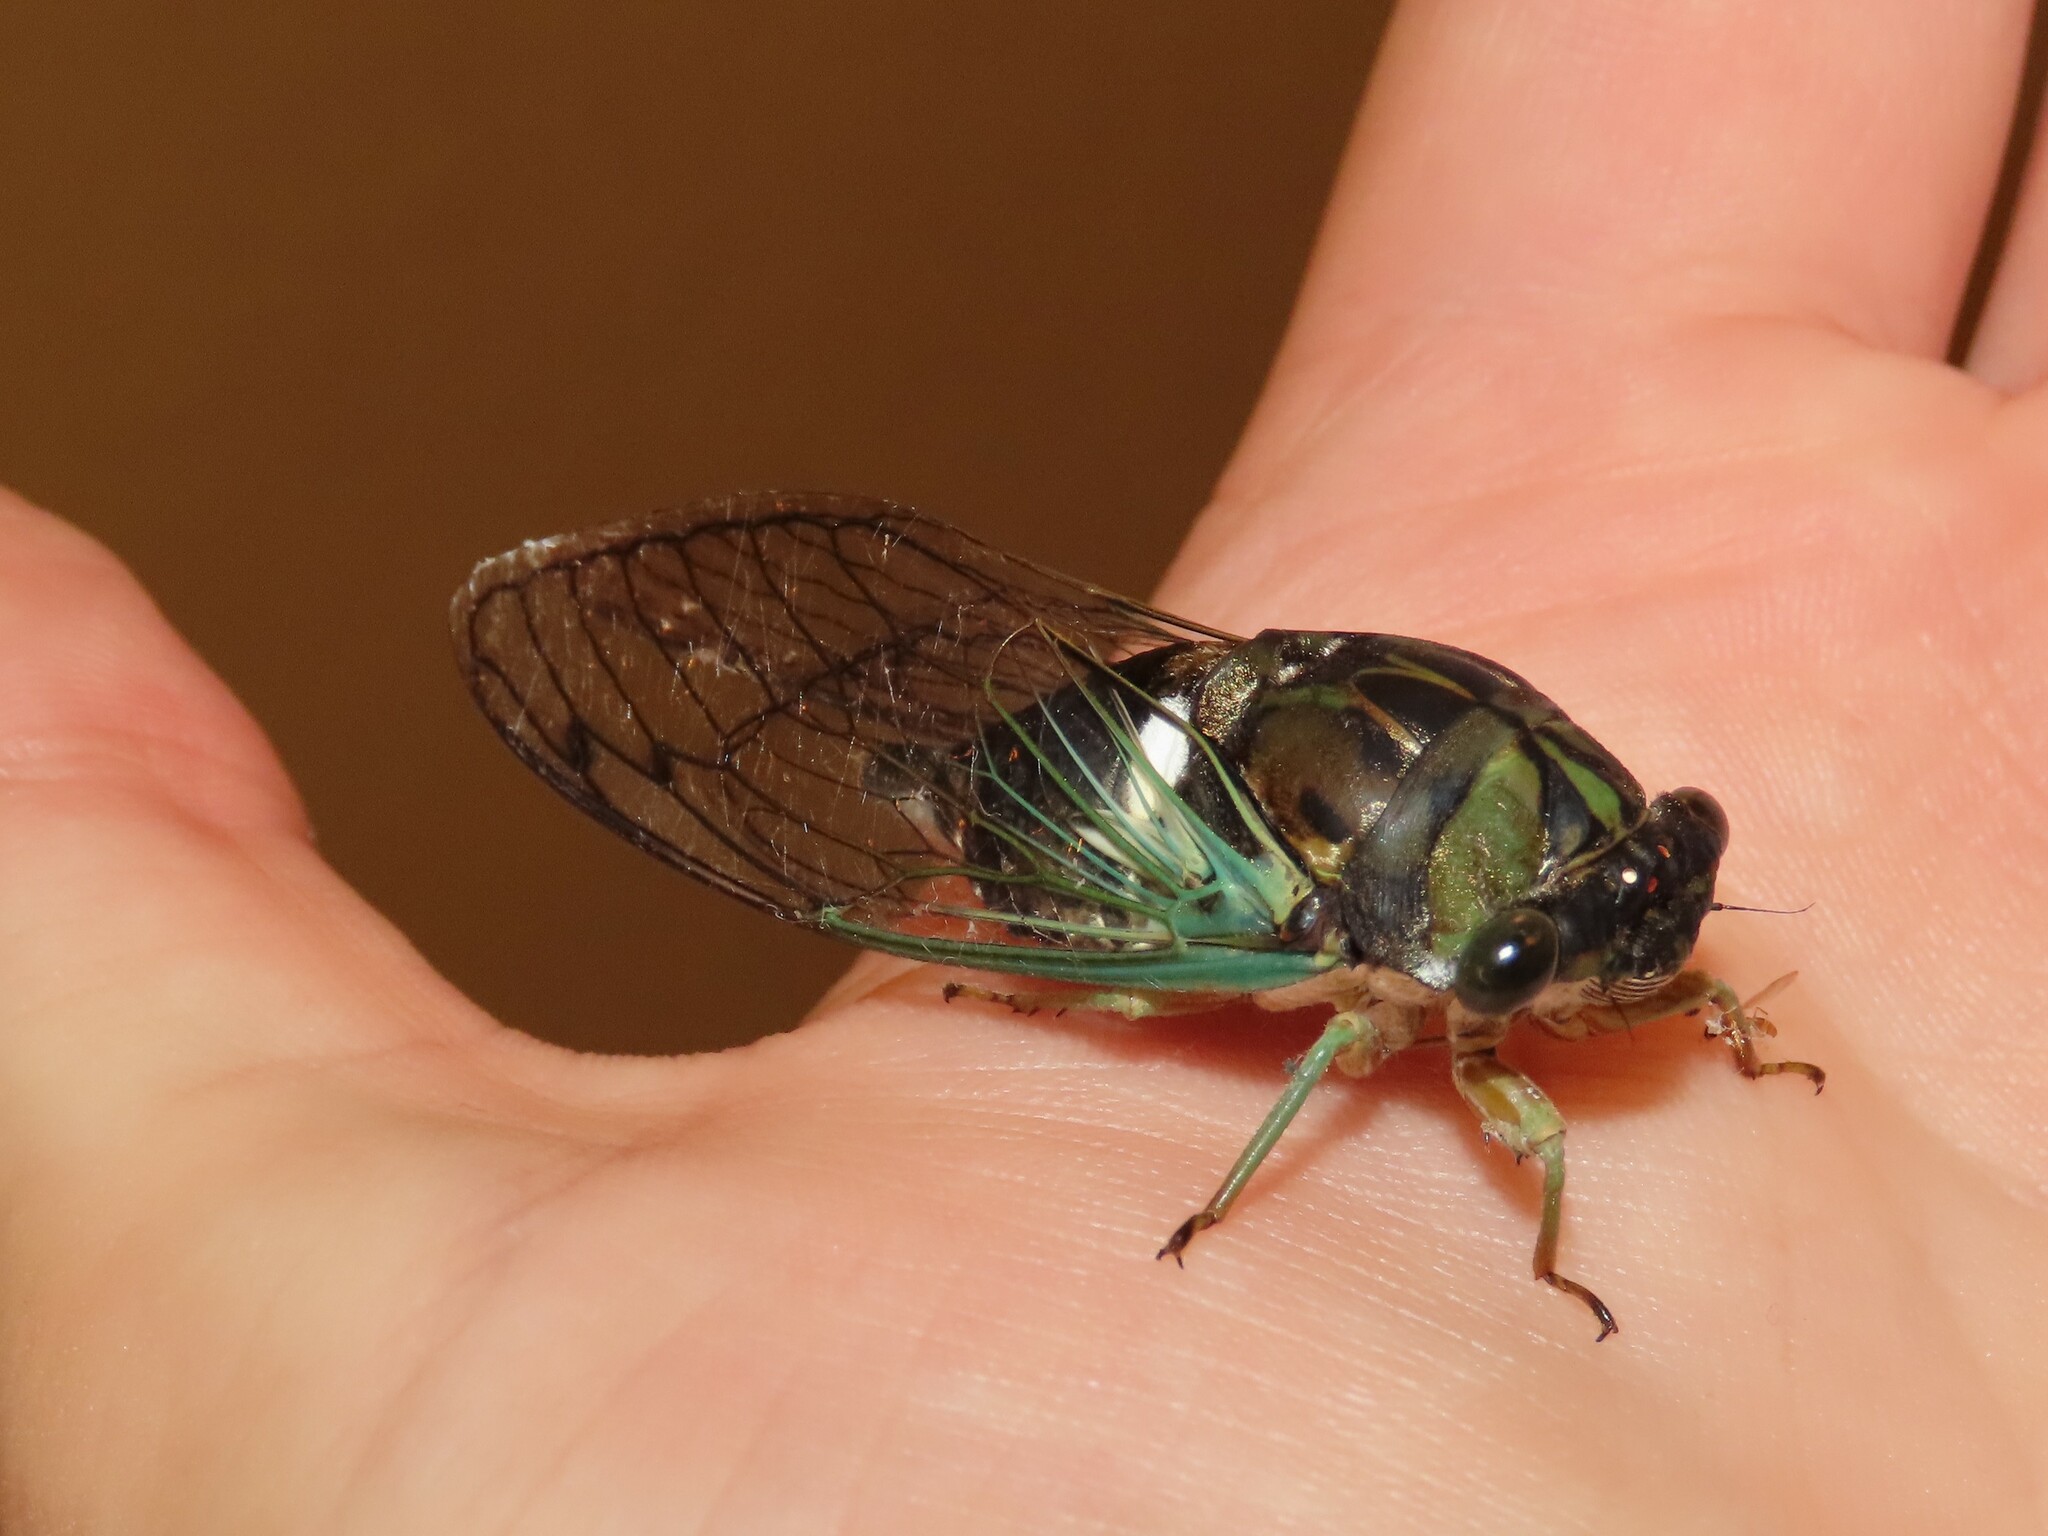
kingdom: Animalia
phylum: Arthropoda
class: Insecta
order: Hemiptera
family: Cicadidae
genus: Neotibicen
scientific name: Neotibicen tibicen
